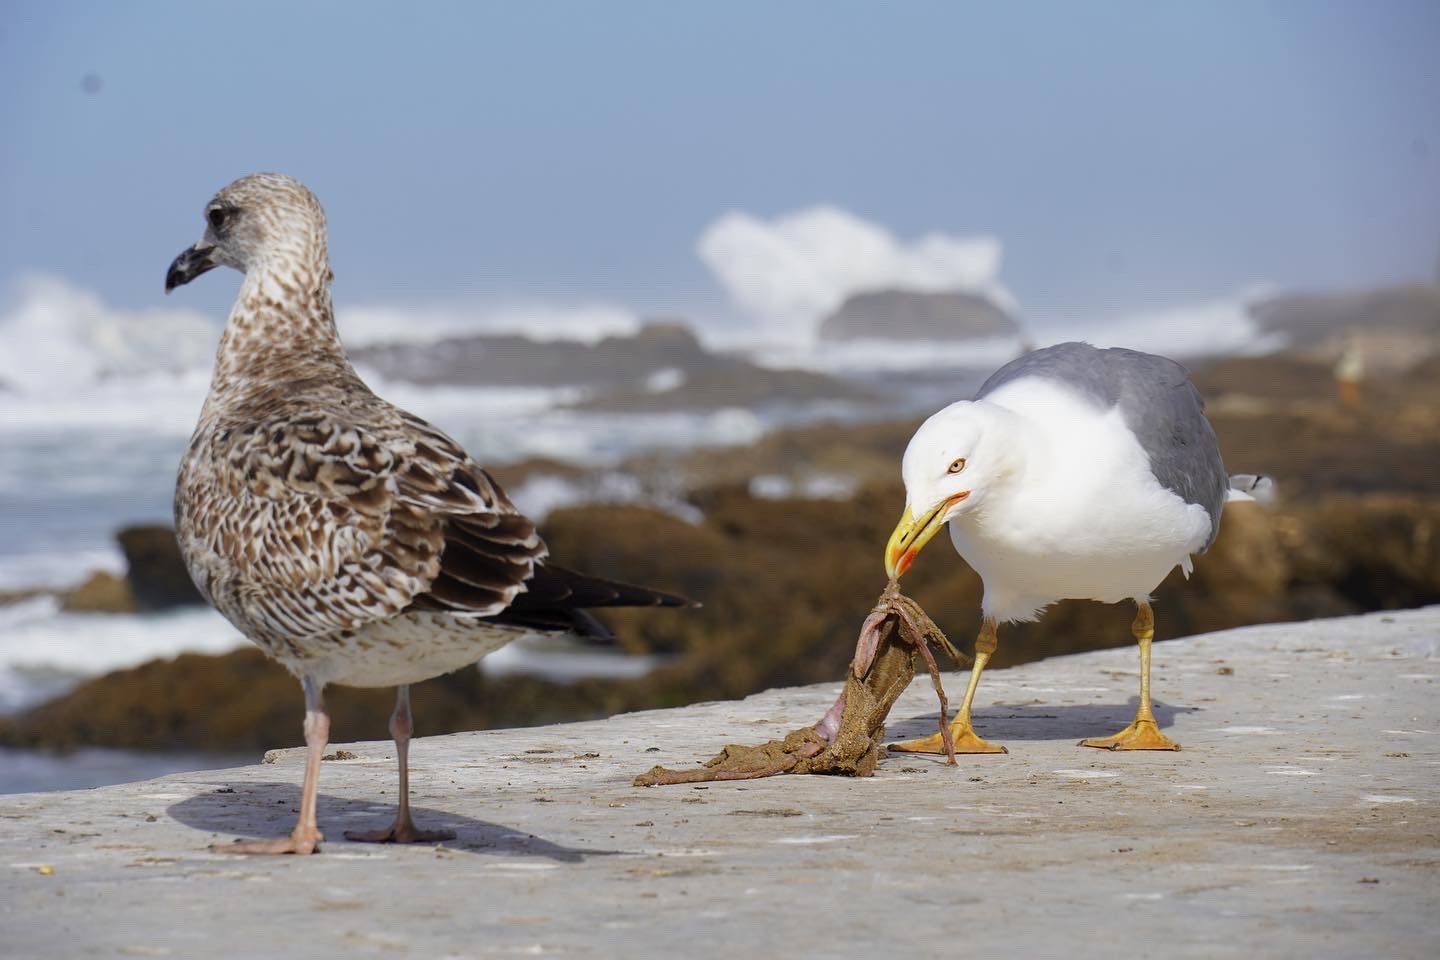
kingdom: Animalia
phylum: Chordata
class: Aves
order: Charadriiformes
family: Laridae
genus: Larus
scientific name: Larus michahellis
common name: Yellow-legged gull
